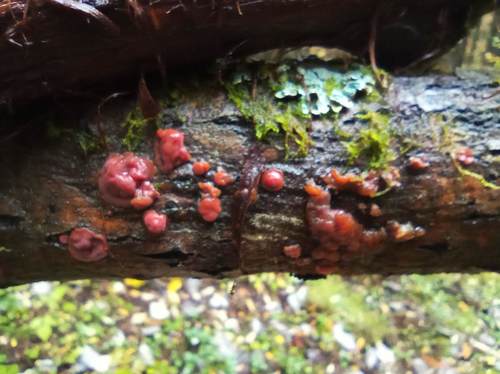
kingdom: Fungi
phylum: Basidiomycota
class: Agaricomycetes
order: Corticiales
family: Vuilleminiaceae
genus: Cytidia
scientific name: Cytidia salicina
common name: Scarlet splash
